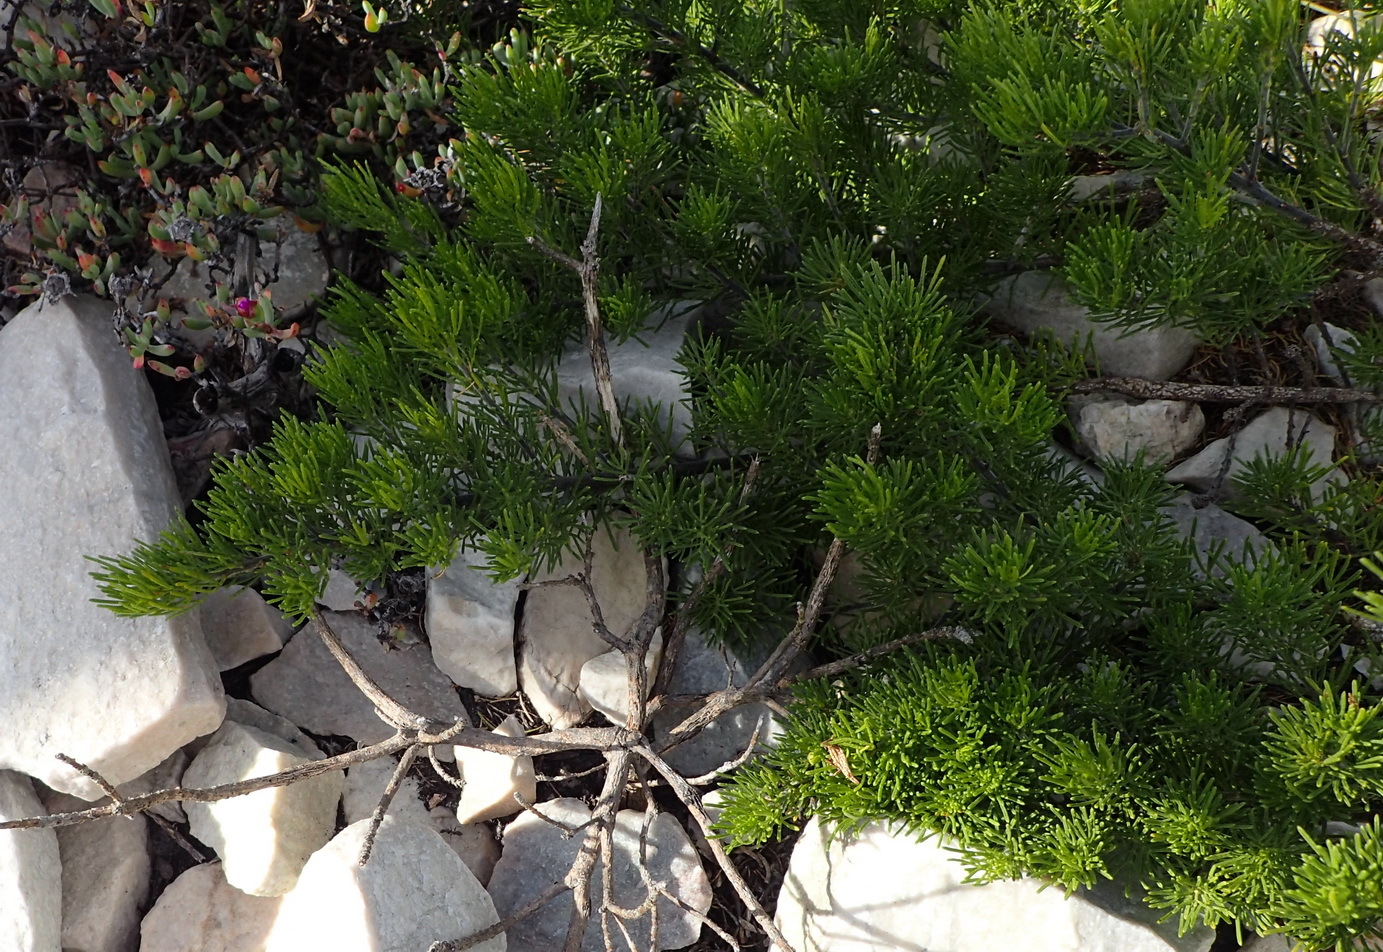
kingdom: Plantae
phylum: Tracheophyta
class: Magnoliopsida
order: Fabales
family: Fabaceae
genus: Psoralea
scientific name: Psoralea vanberkelae
